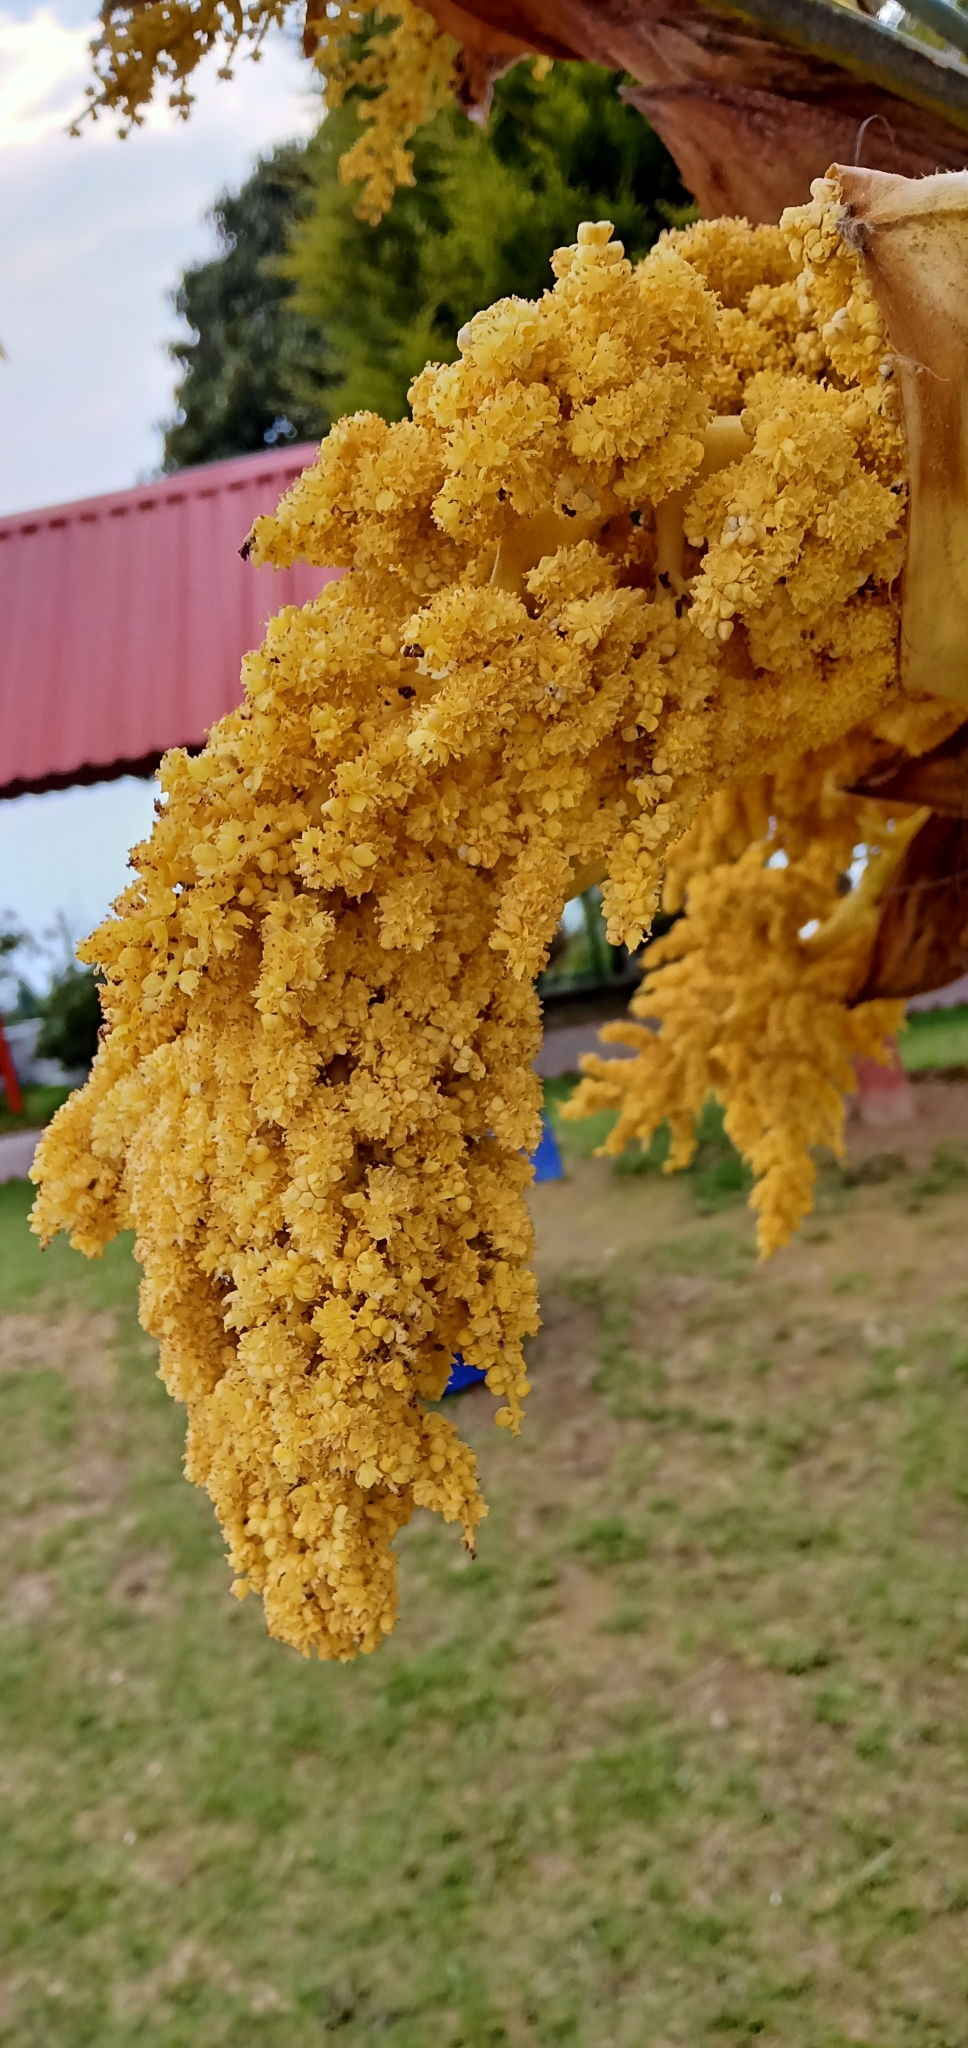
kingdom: Plantae
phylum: Tracheophyta
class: Liliopsida
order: Arecales
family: Arecaceae
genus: Trachycarpus
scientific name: Trachycarpus fortunei
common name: Chusan palm
